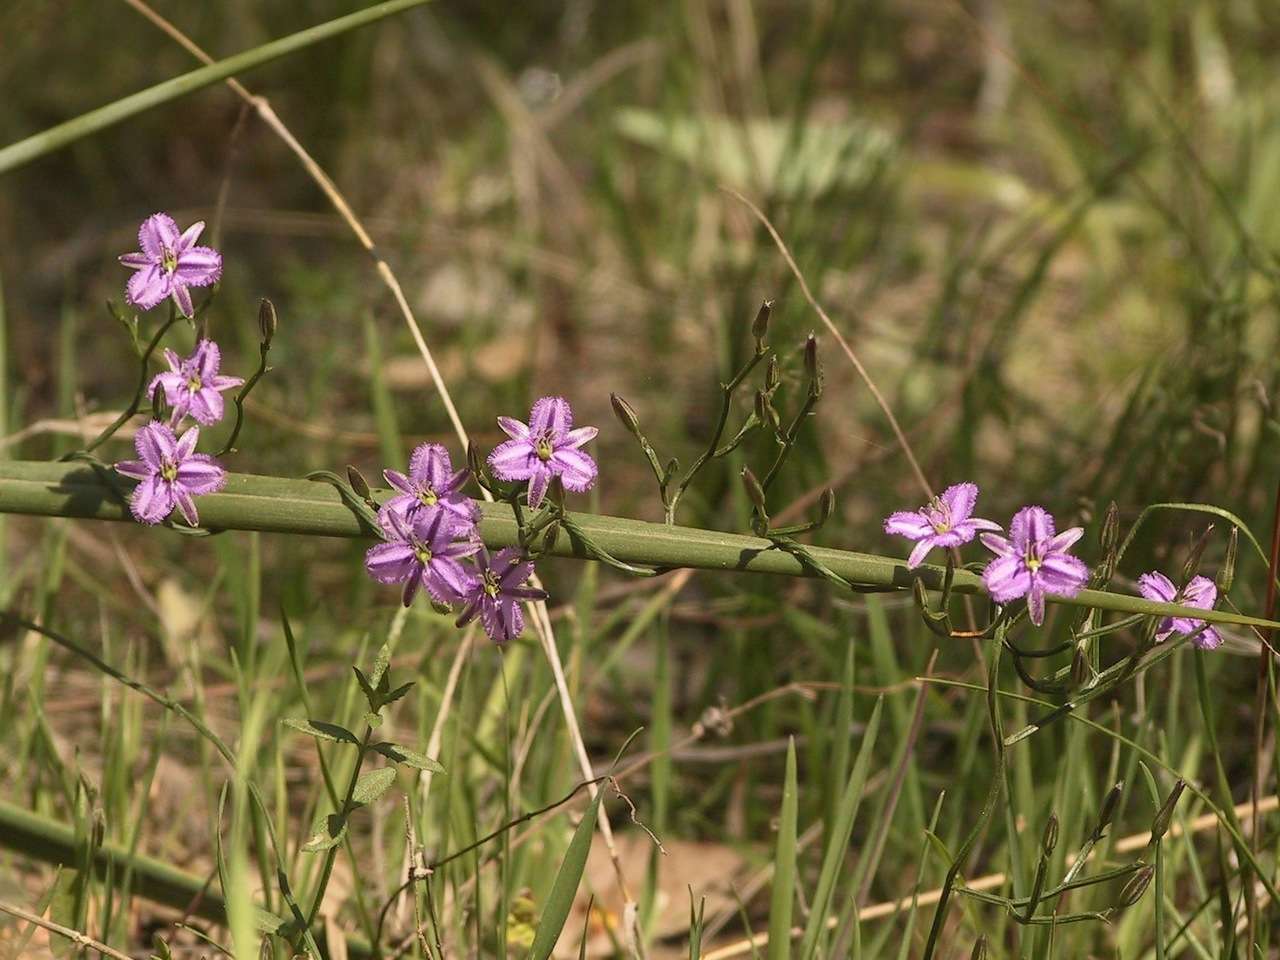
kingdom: Plantae
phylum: Tracheophyta
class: Liliopsida
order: Asparagales
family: Asparagaceae
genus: Thysanotus
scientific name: Thysanotus patersonii
